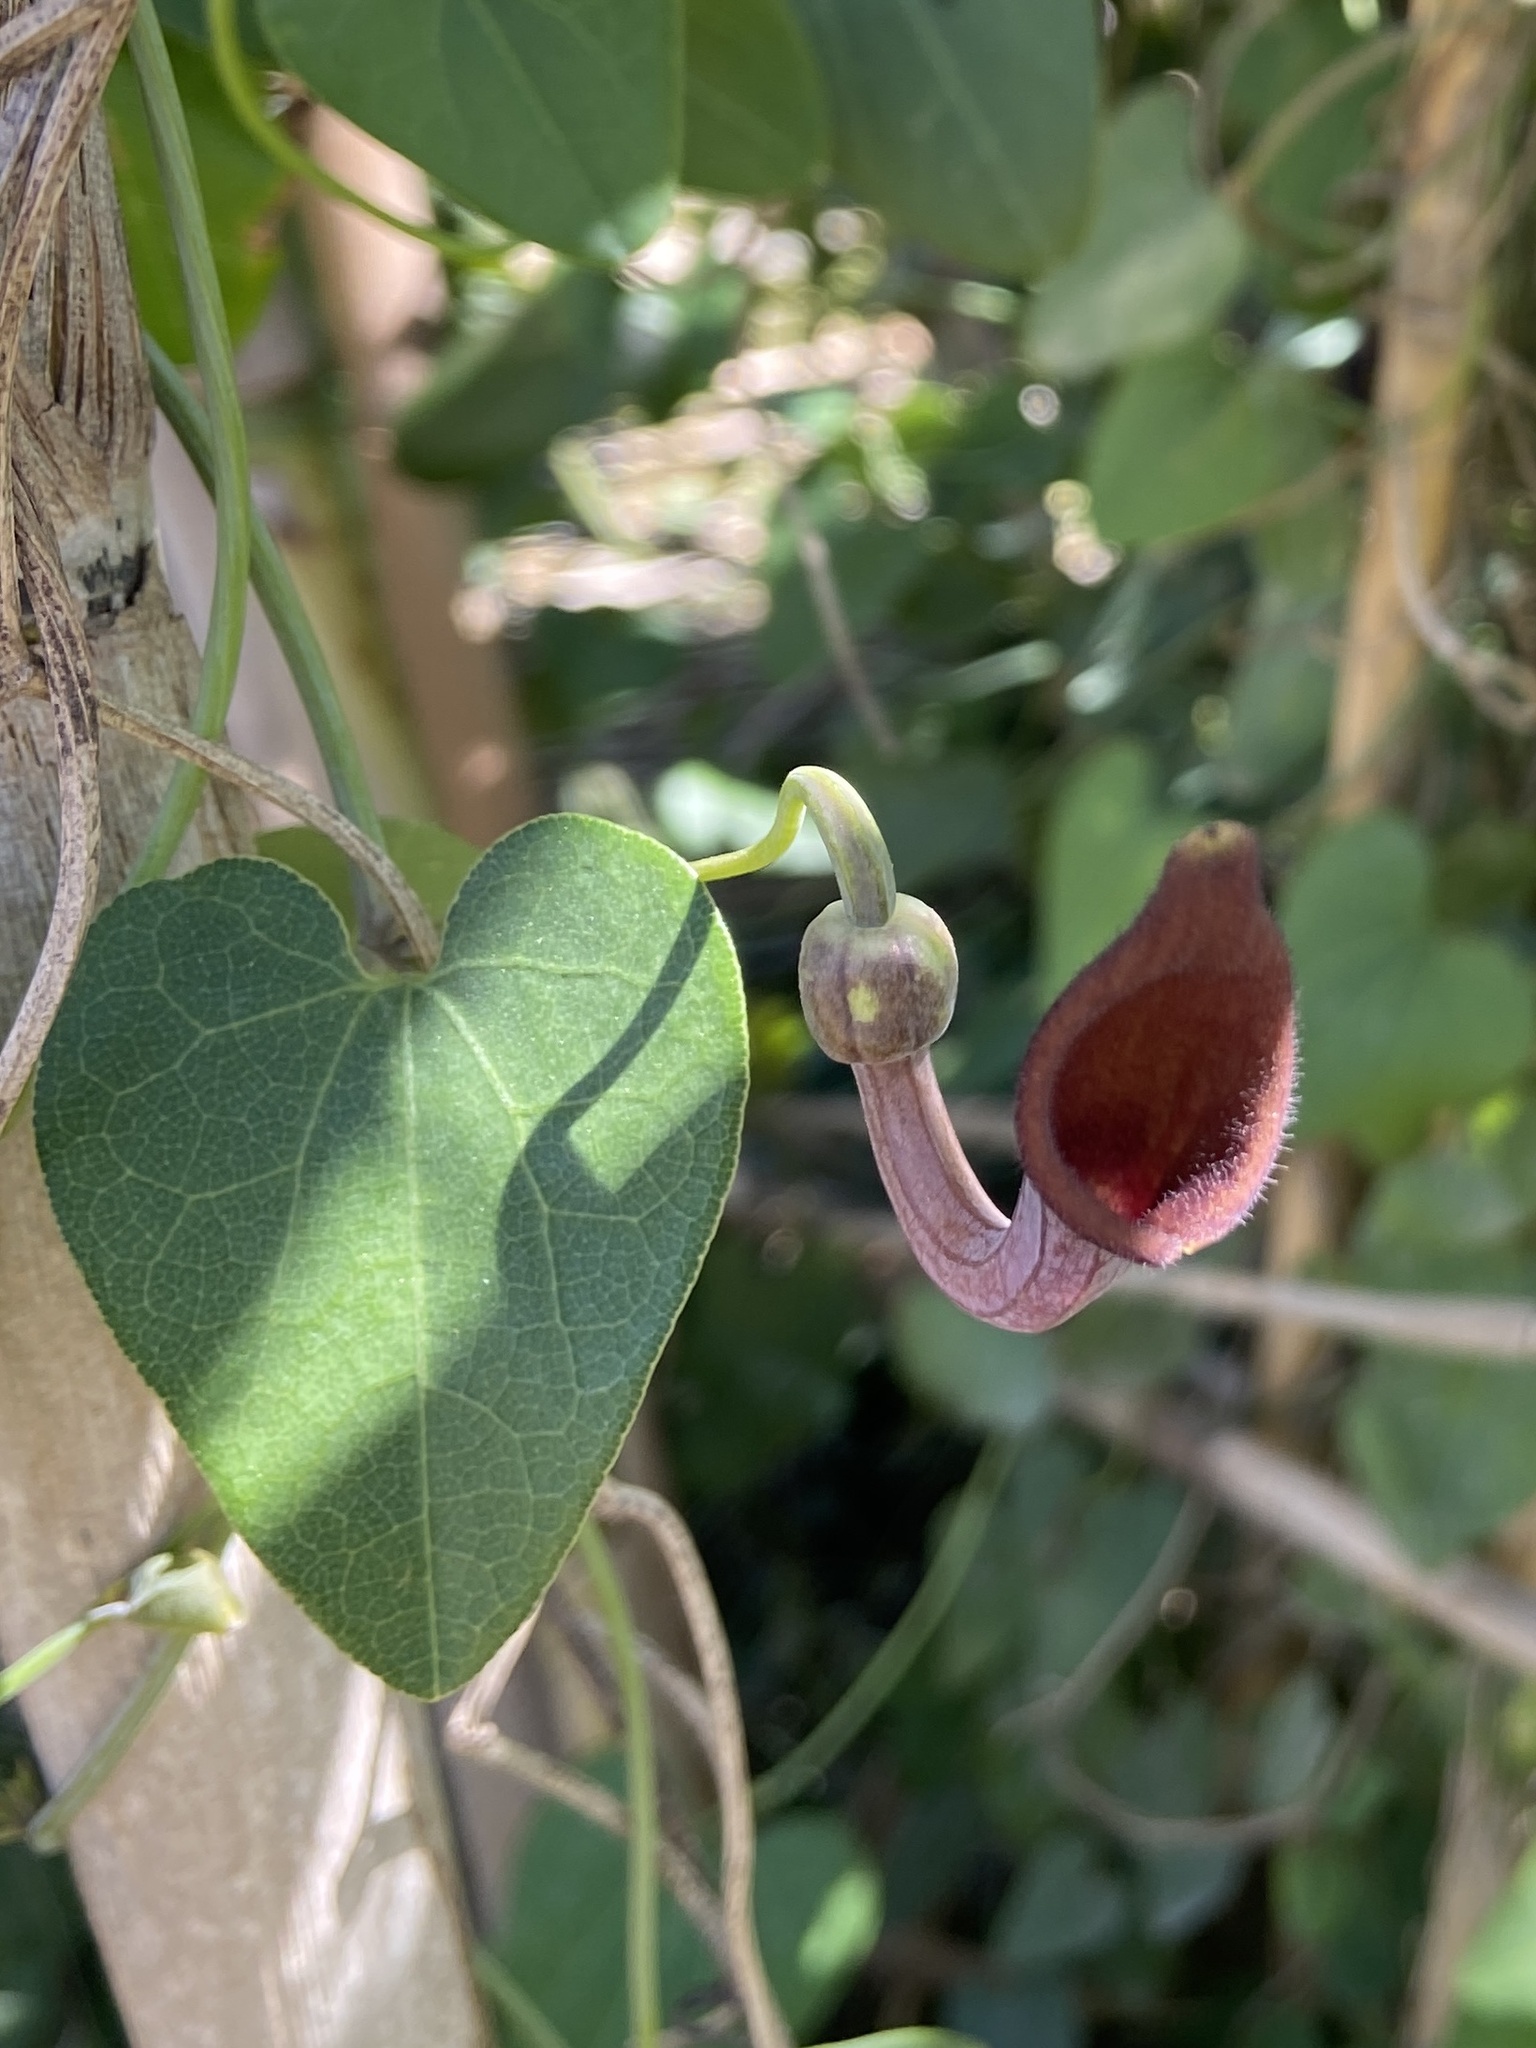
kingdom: Plantae
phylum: Tracheophyta
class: Magnoliopsida
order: Piperales
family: Aristolochiaceae
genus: Aristolochia
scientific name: Aristolochia baetica
